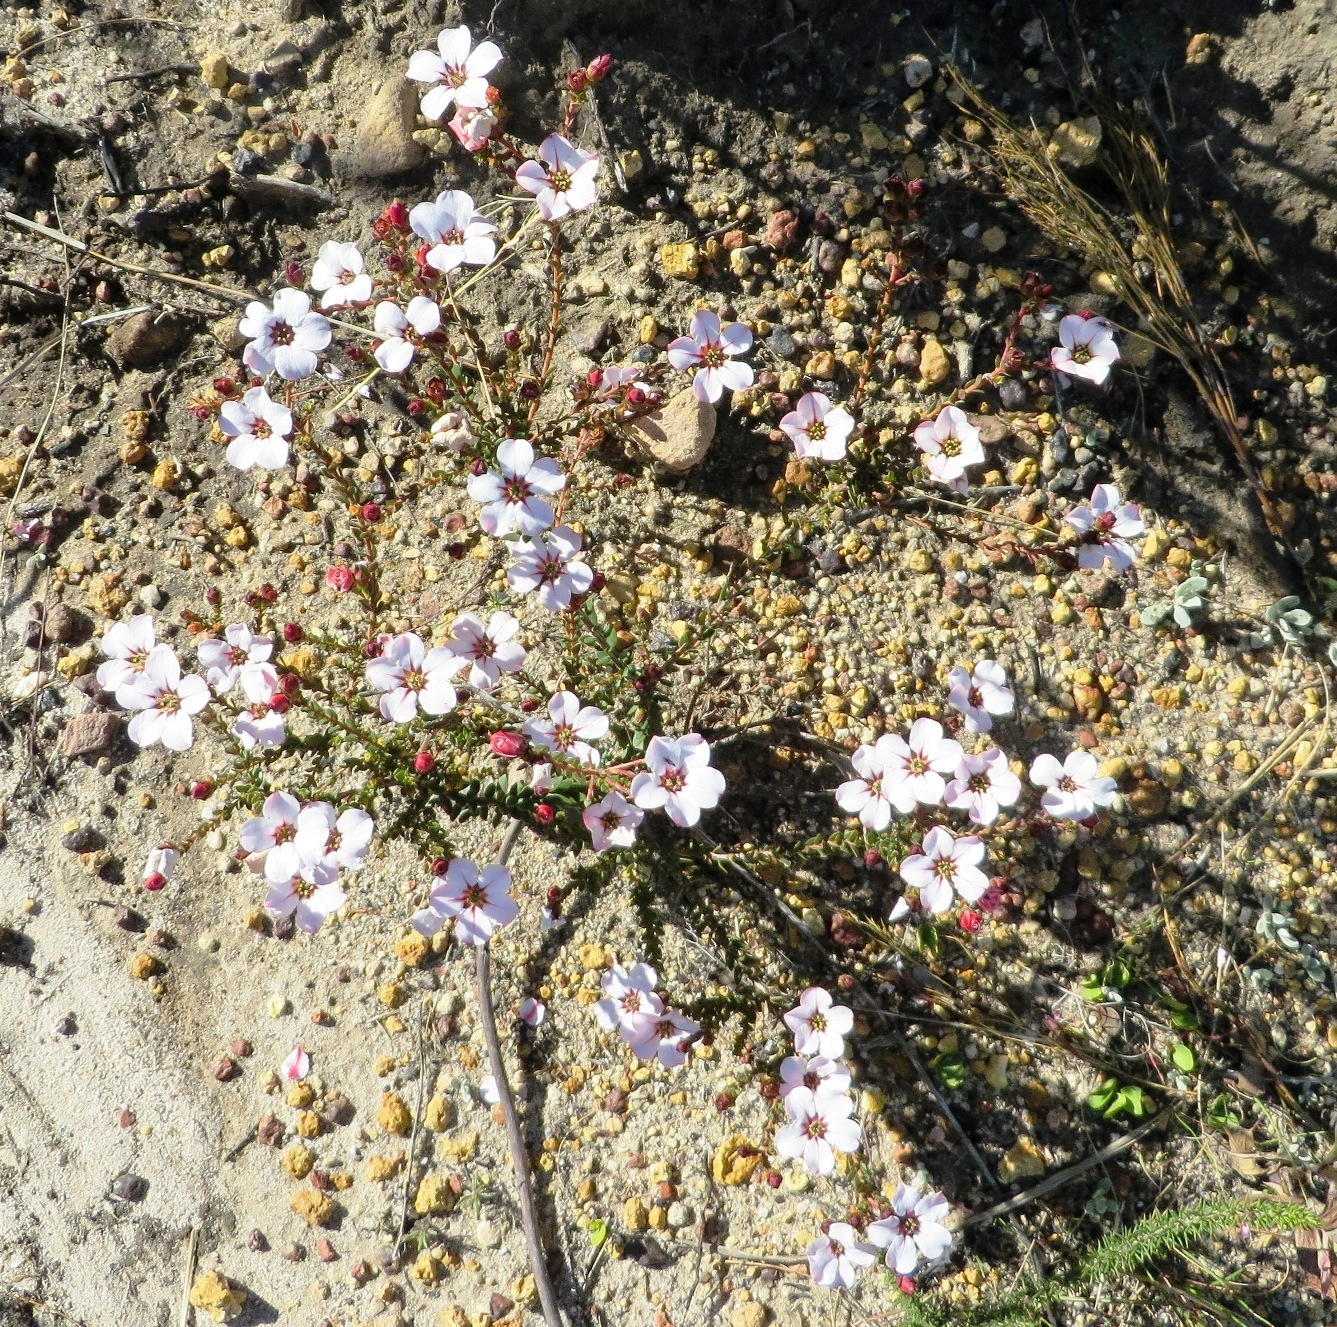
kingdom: Plantae
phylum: Tracheophyta
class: Magnoliopsida
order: Sapindales
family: Rutaceae
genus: Adenandra
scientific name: Adenandra villosa
